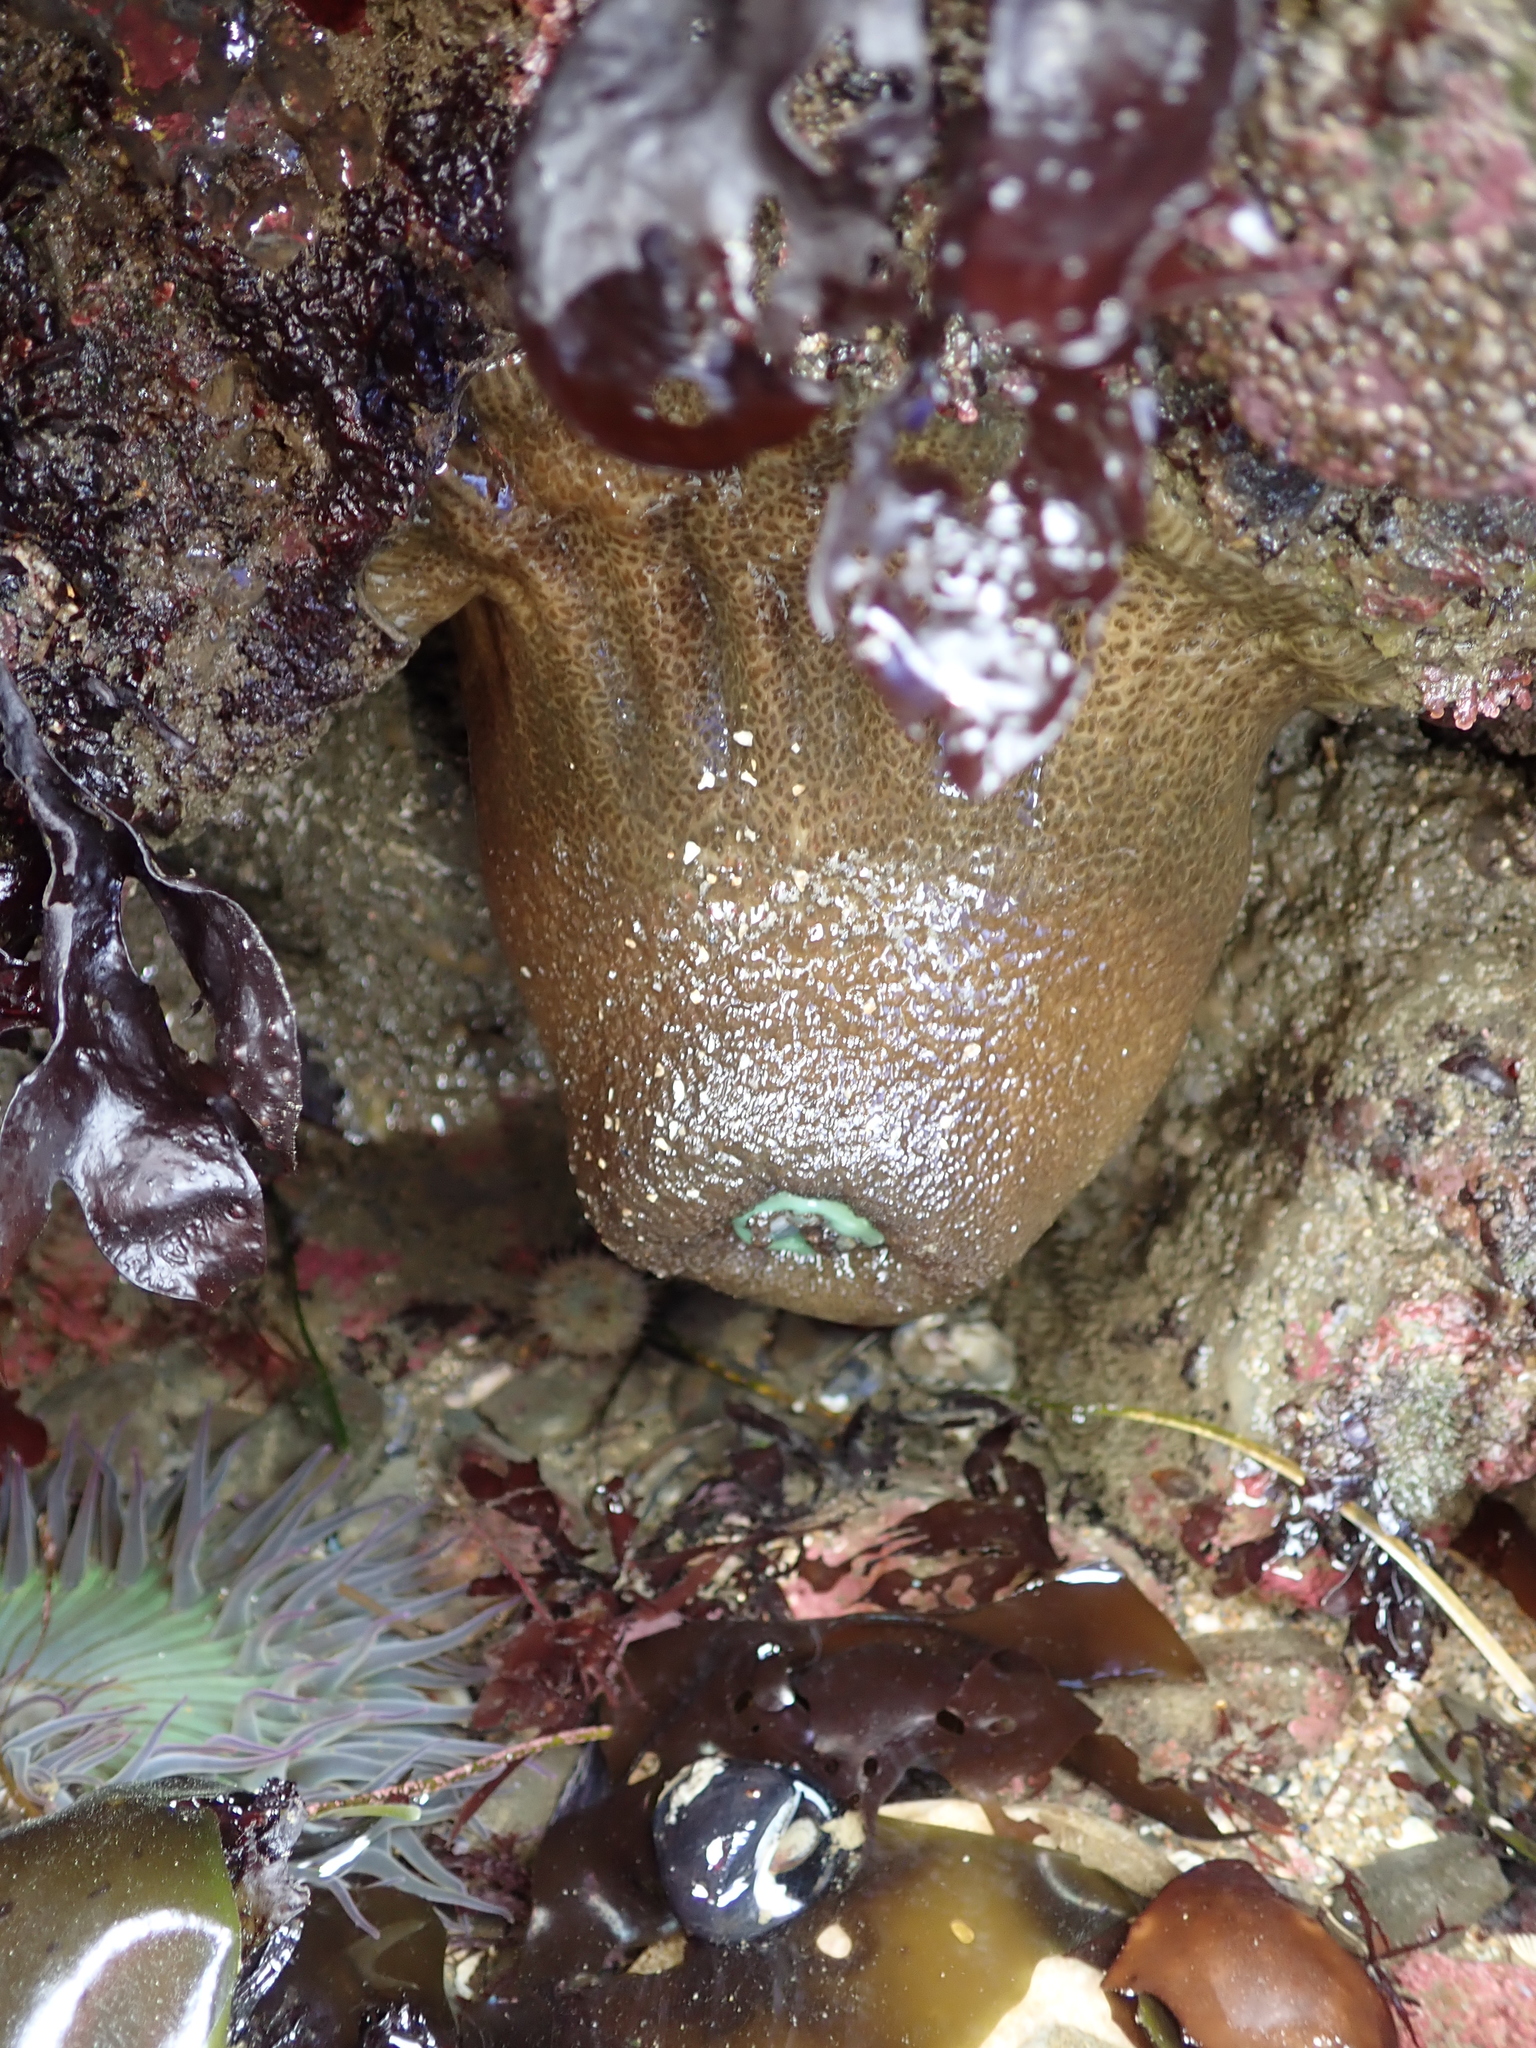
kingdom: Animalia
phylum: Cnidaria
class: Anthozoa
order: Actiniaria
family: Actiniidae
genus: Anthopleura
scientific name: Anthopleura xanthogrammica
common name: Giant green anemone
